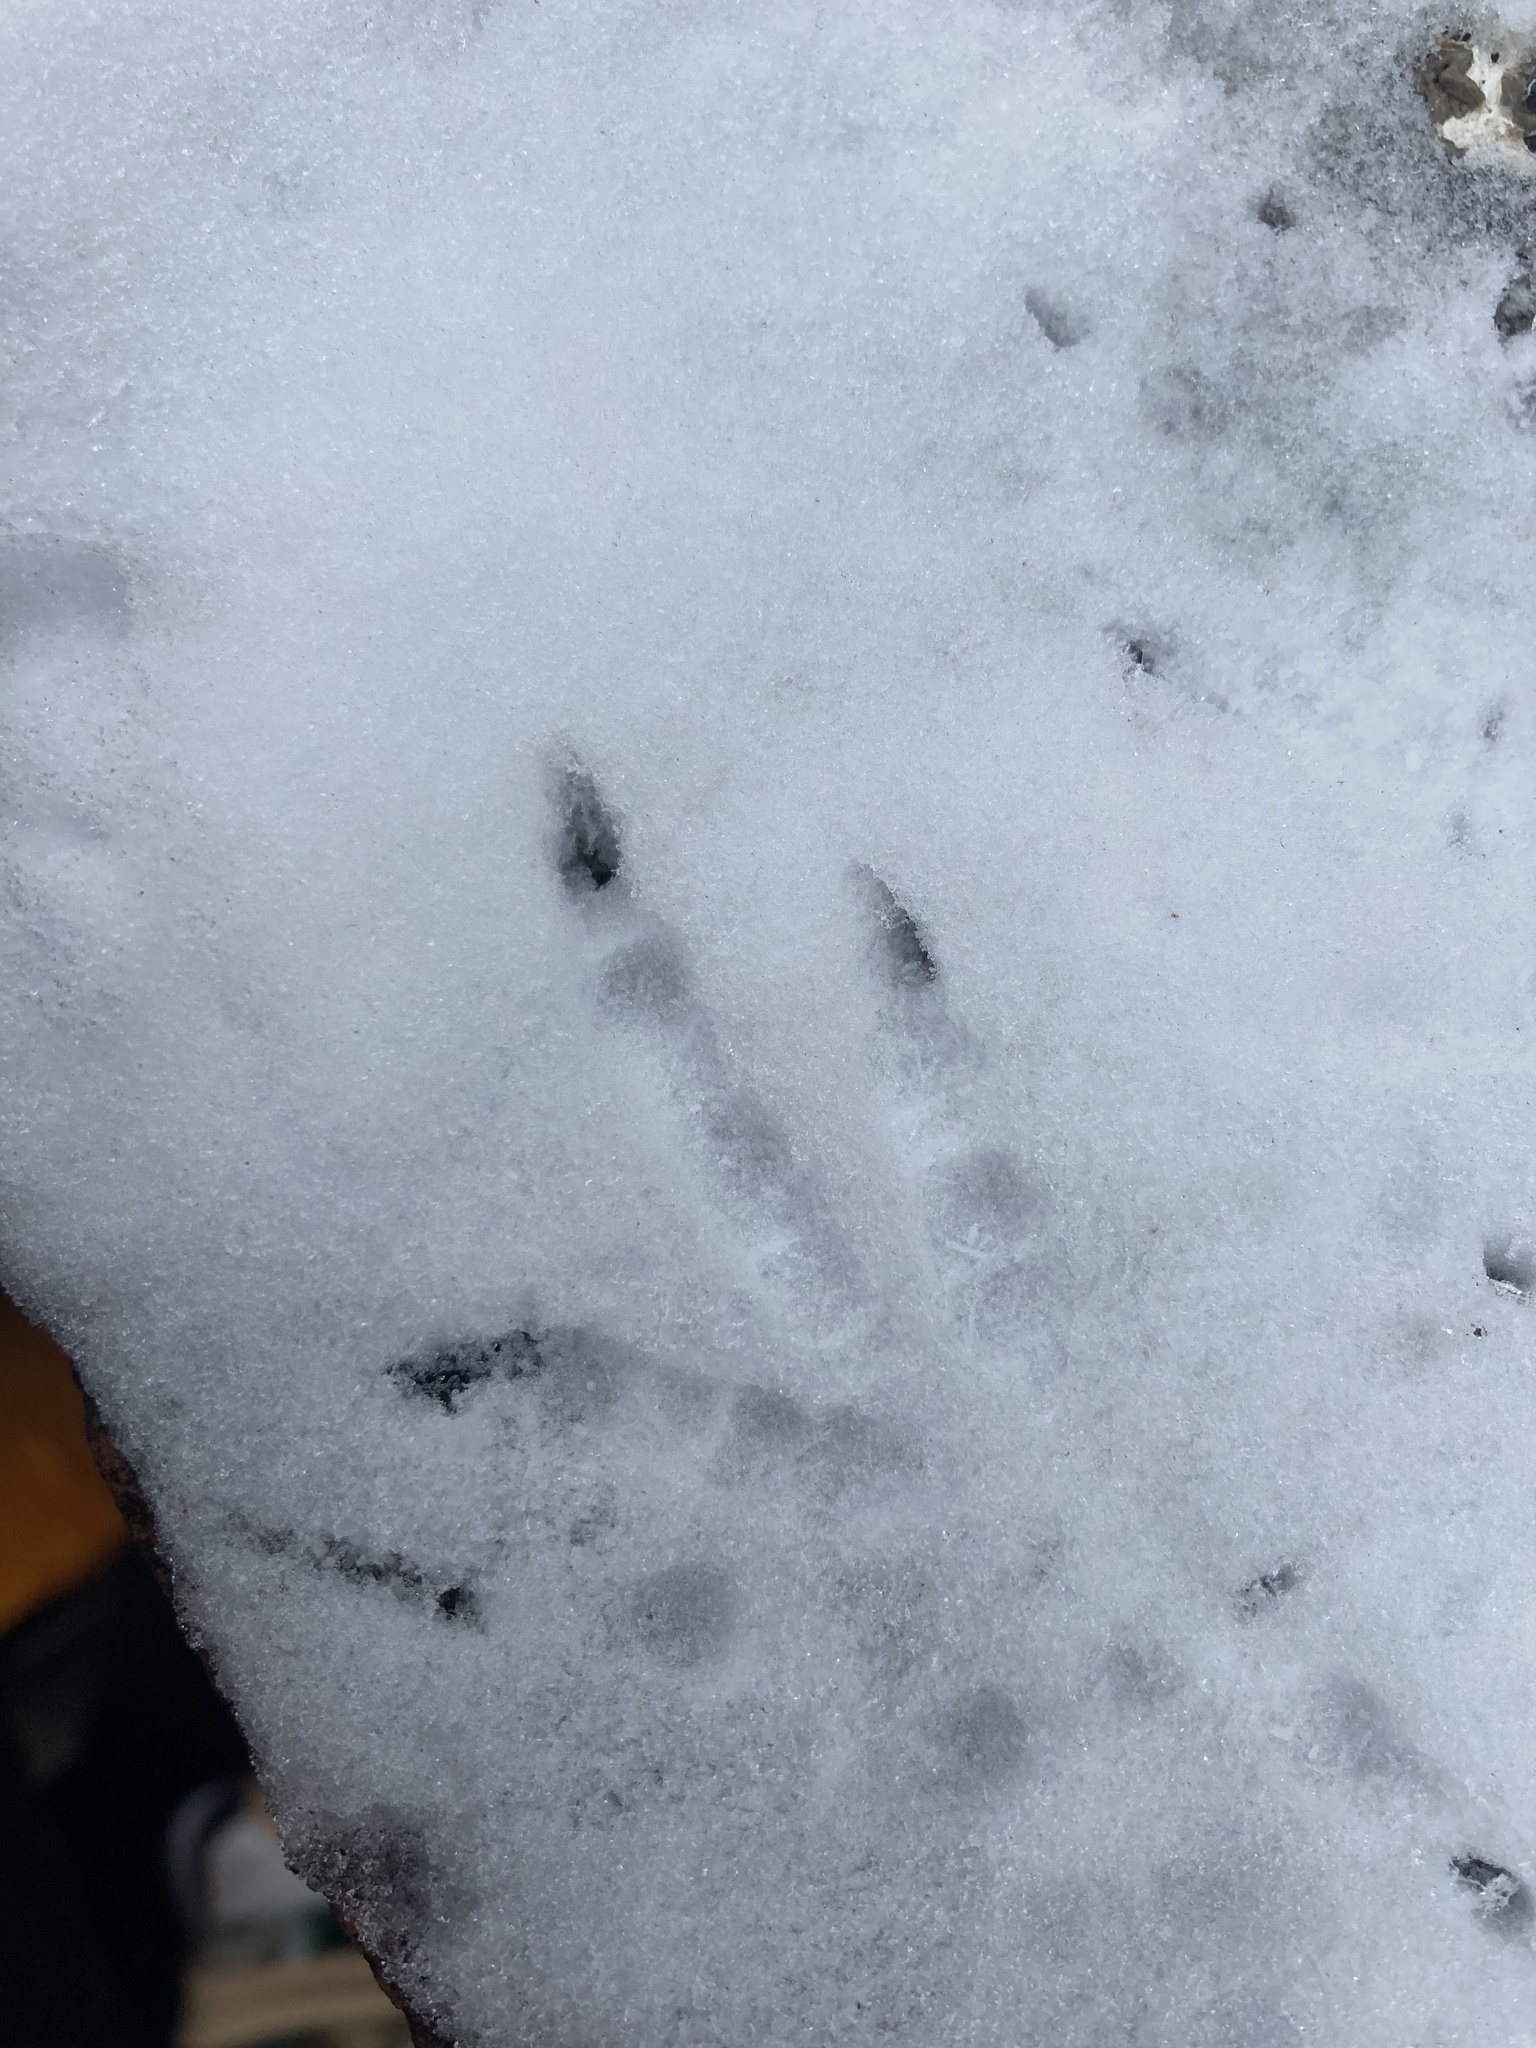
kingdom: Animalia
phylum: Chordata
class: Aves
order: Columbiformes
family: Columbidae
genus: Columba
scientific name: Columba livia
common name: Rock pigeon
